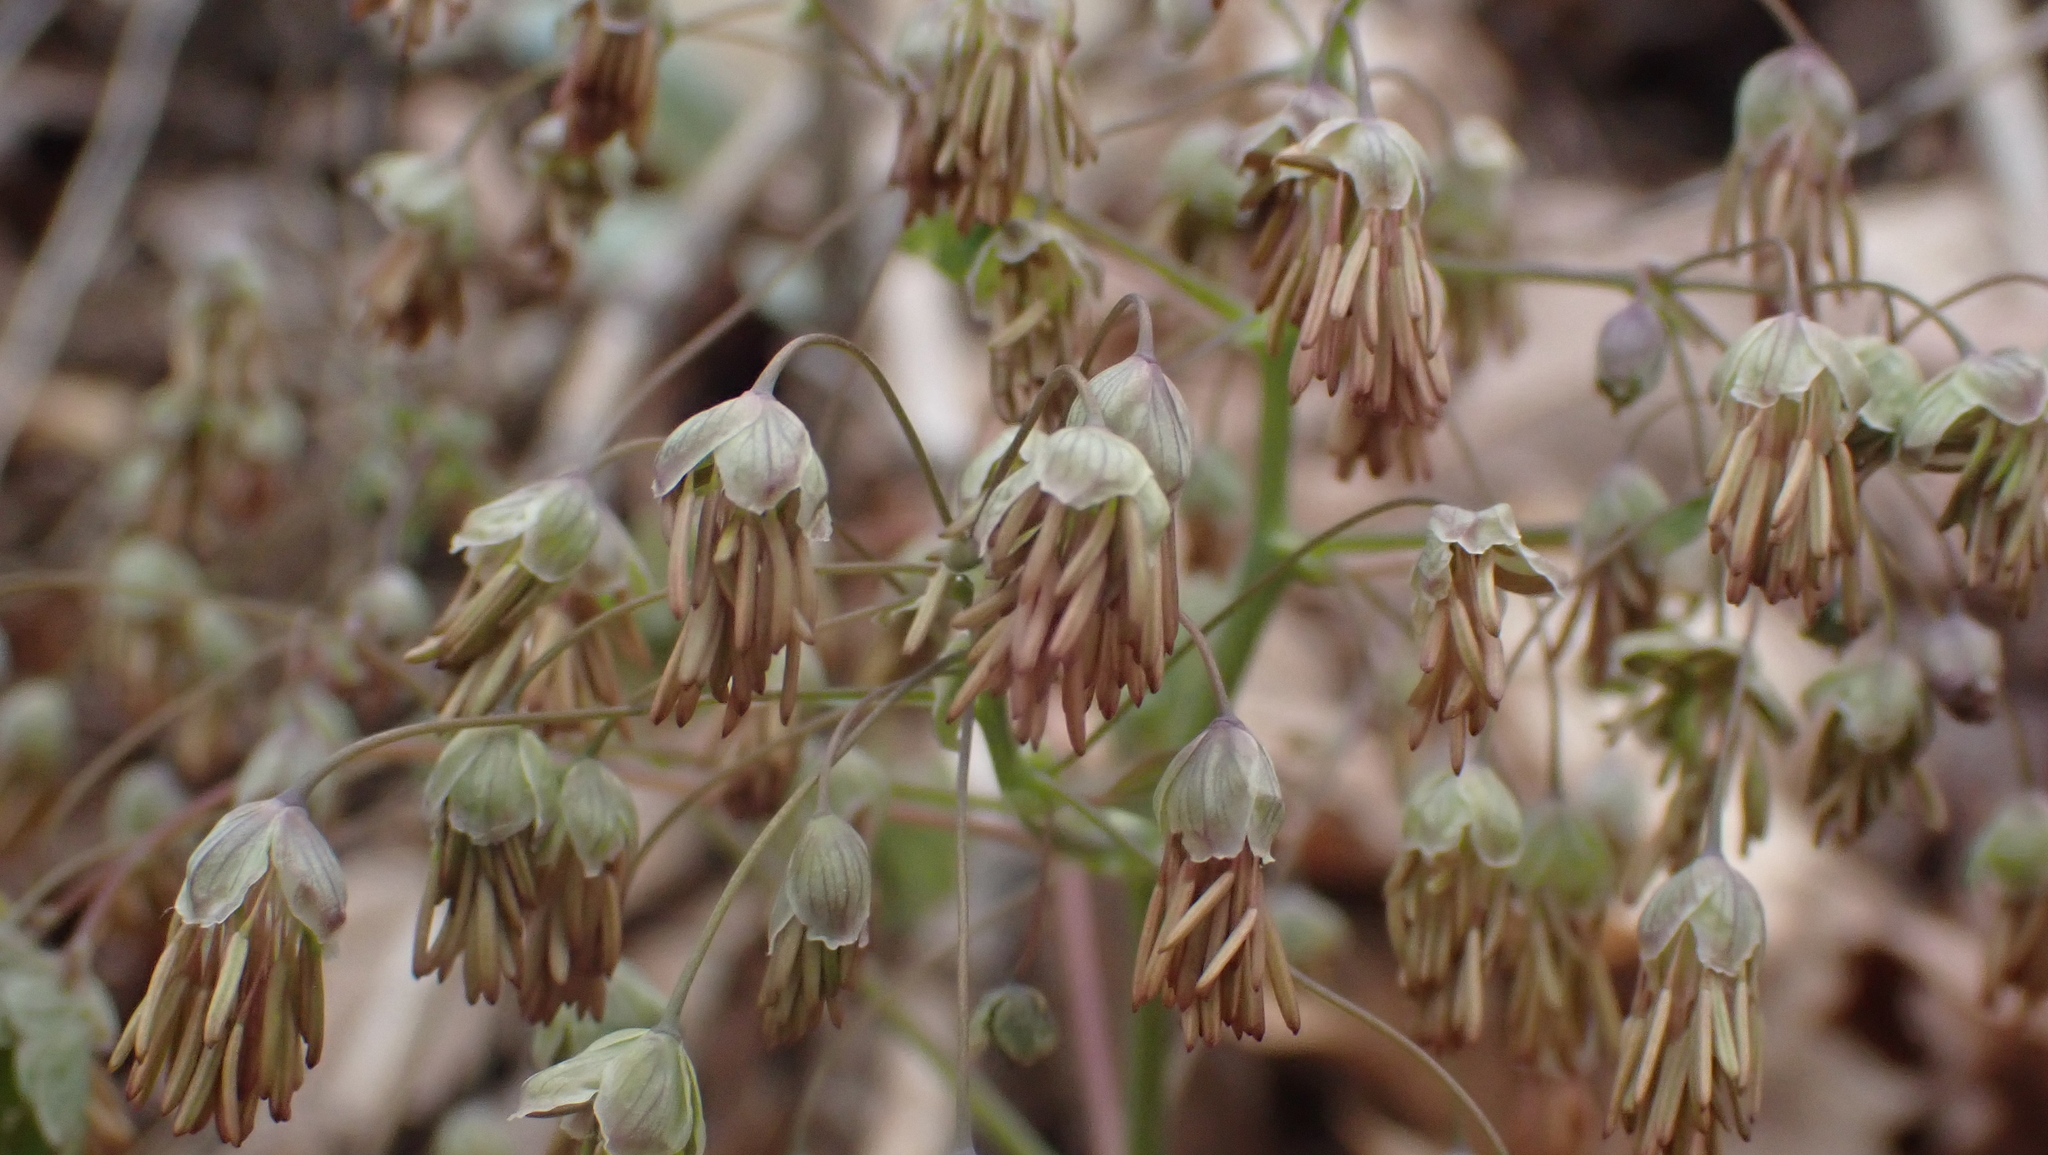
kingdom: Plantae
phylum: Tracheophyta
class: Magnoliopsida
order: Ranunculales
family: Ranunculaceae
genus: Thalictrum
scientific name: Thalictrum dioicum
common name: Early meadow-rue
